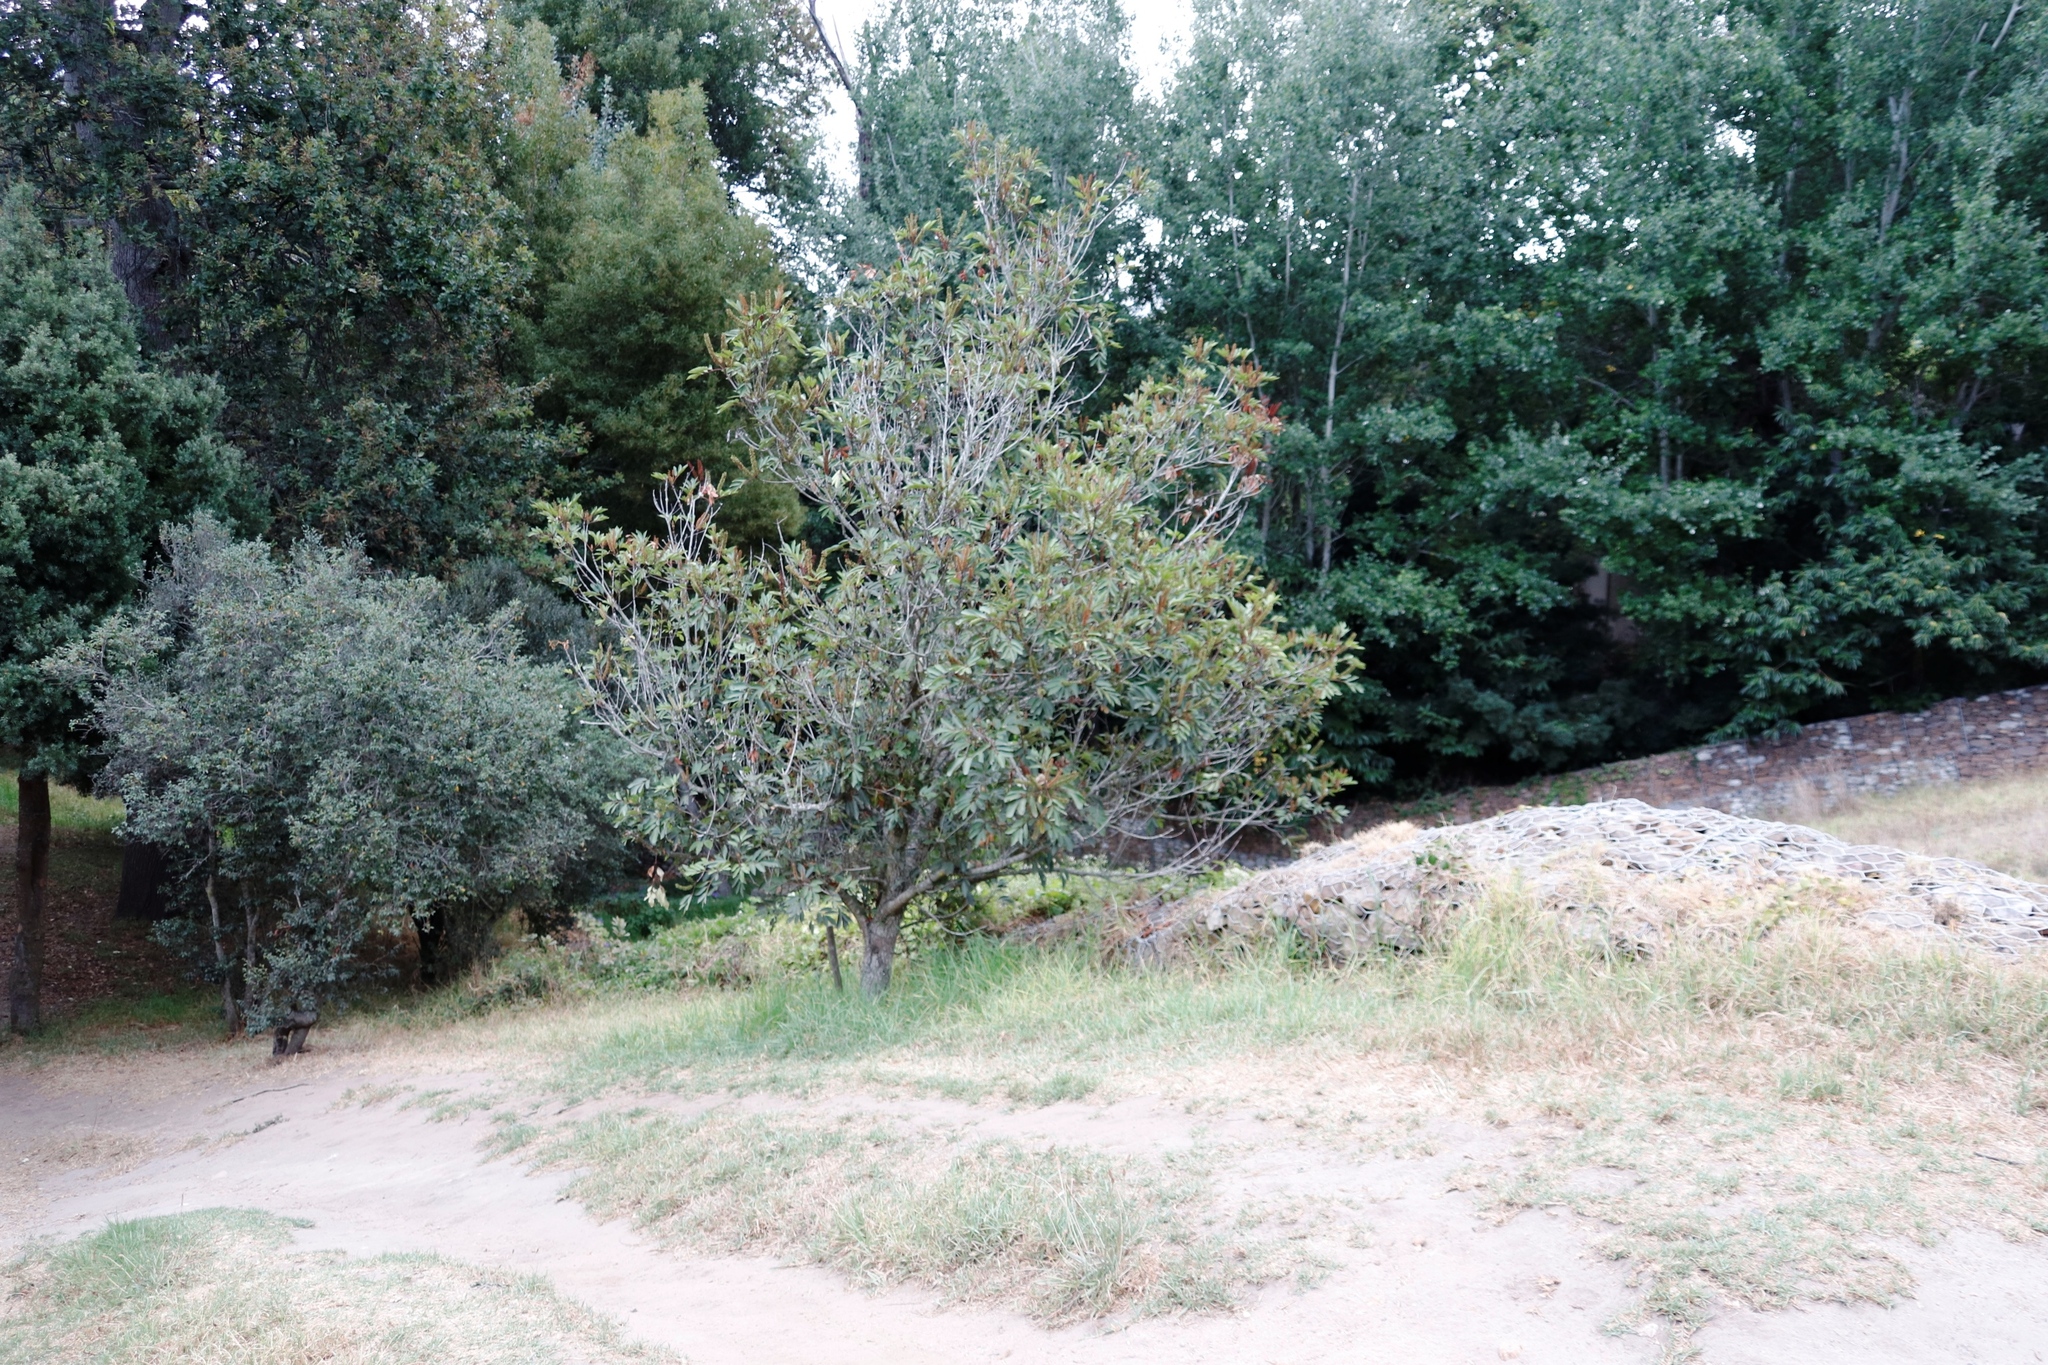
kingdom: Plantae
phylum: Tracheophyta
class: Magnoliopsida
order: Oxalidales
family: Cunoniaceae
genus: Cunonia
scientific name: Cunonia capensis
